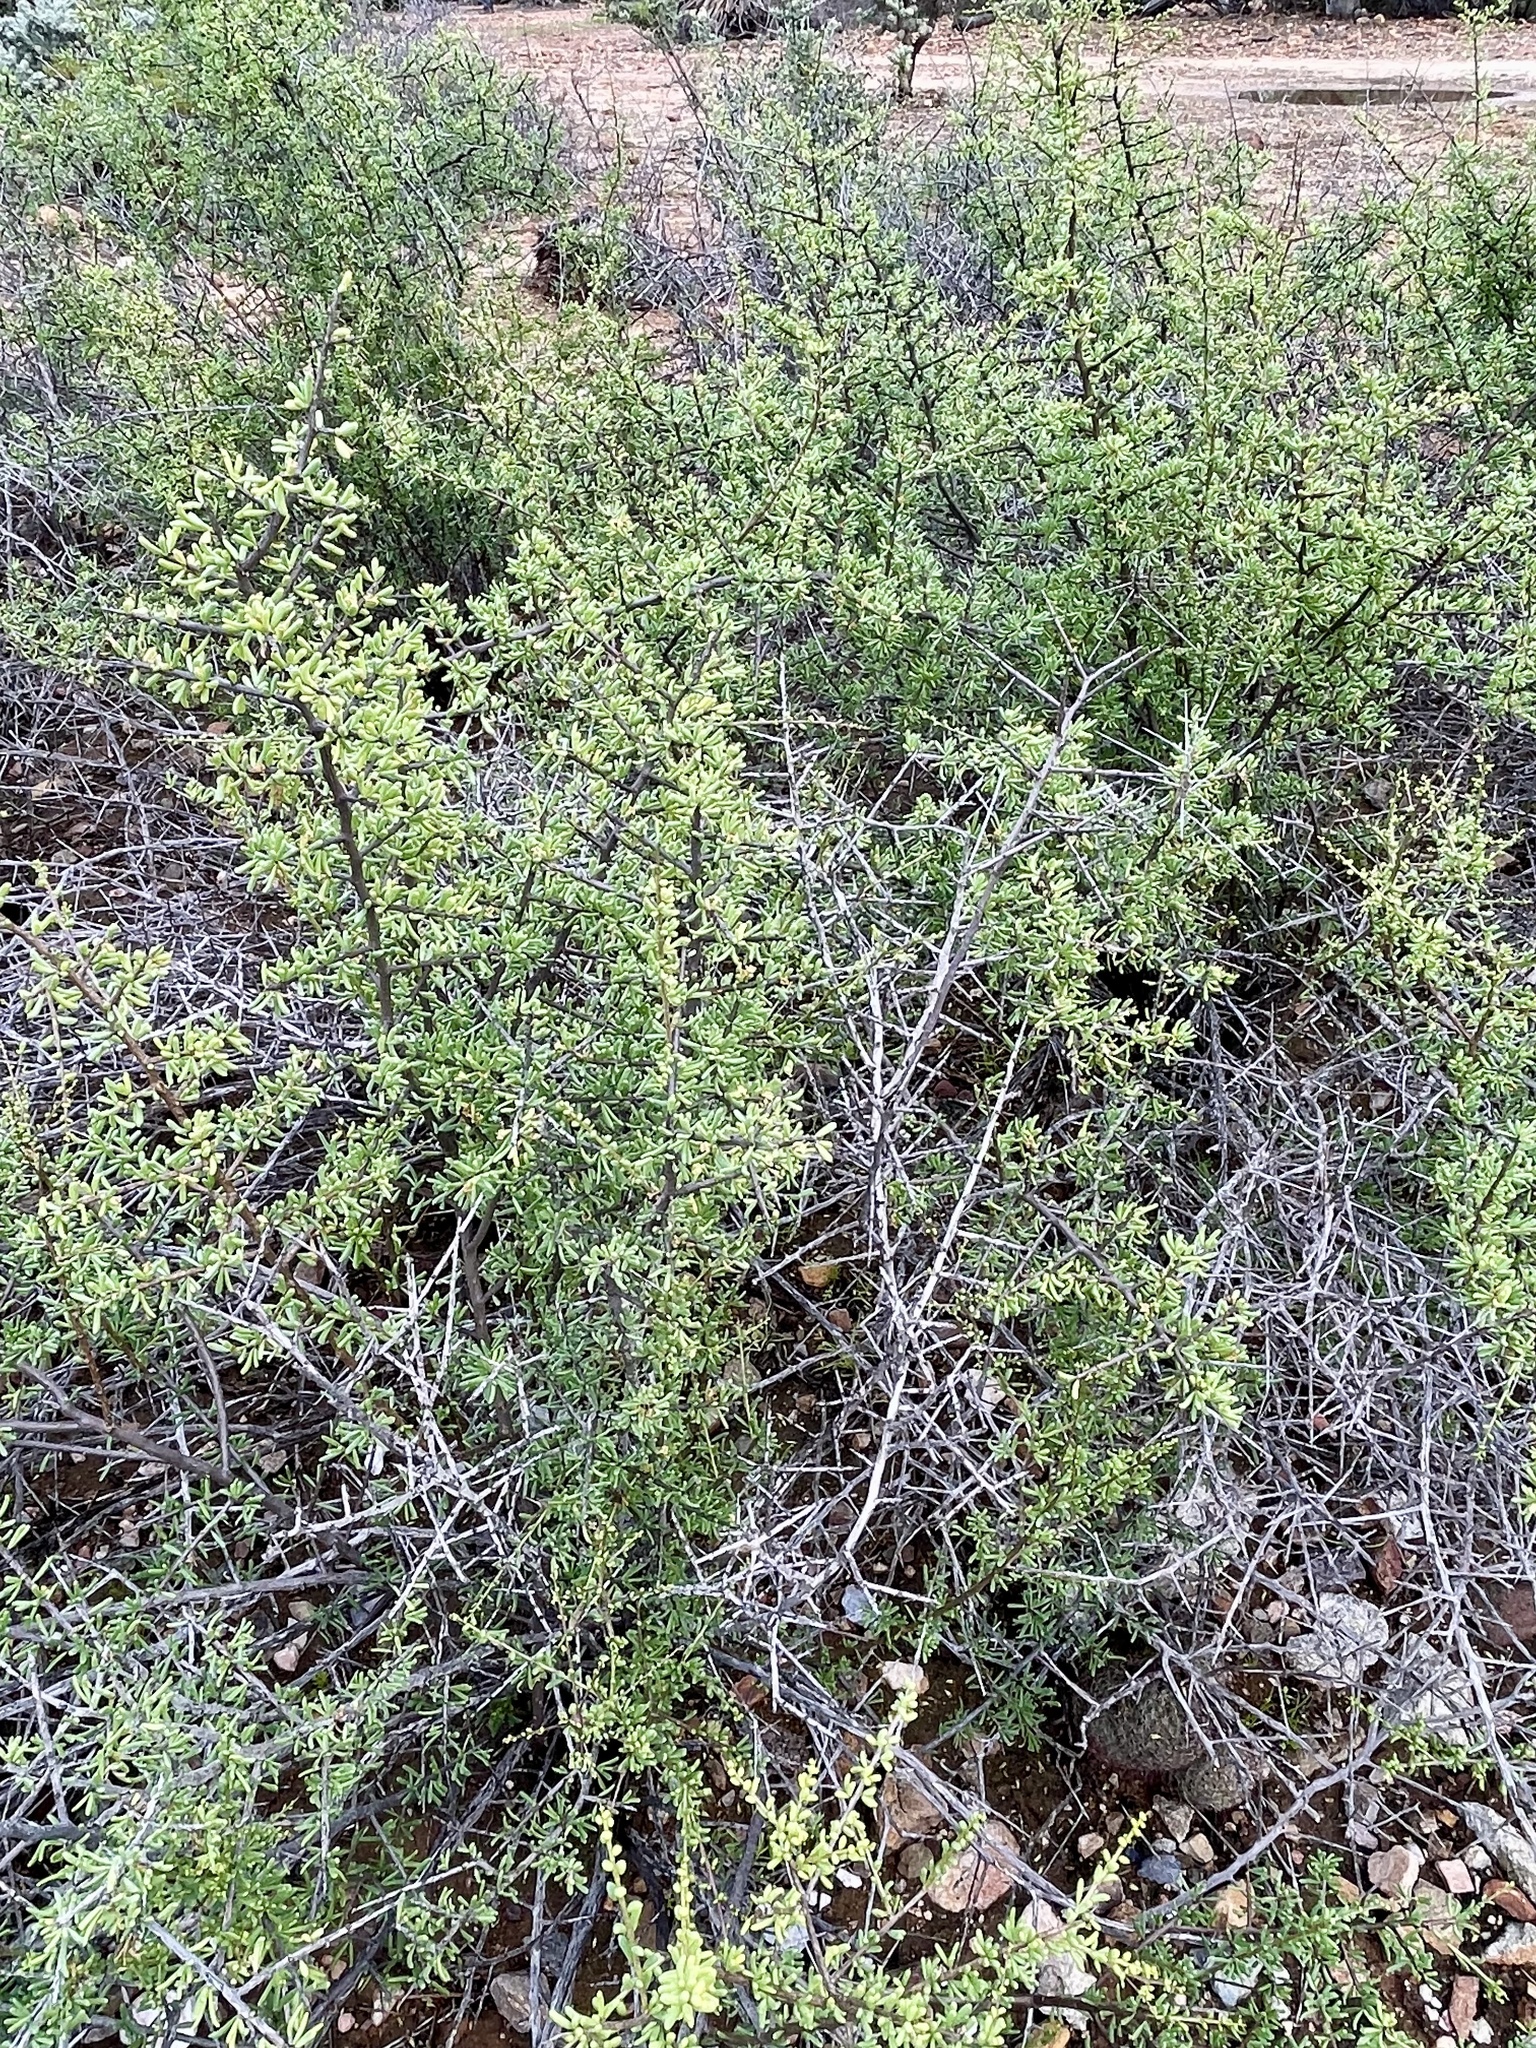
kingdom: Plantae
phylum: Tracheophyta
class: Magnoliopsida
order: Solanales
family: Solanaceae
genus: Lycium
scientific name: Lycium californicum
